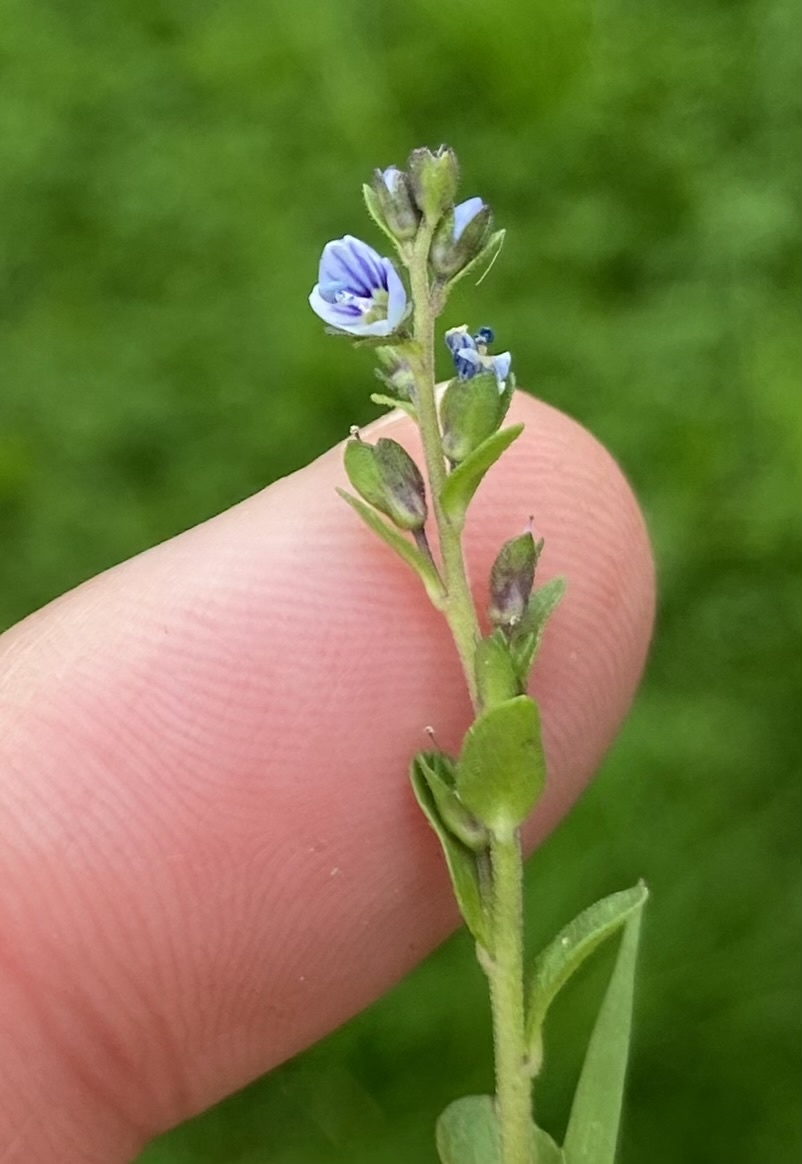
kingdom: Plantae
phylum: Tracheophyta
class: Magnoliopsida
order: Lamiales
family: Plantaginaceae
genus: Veronica
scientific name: Veronica serpyllifolia
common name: Thyme-leaved speedwell
